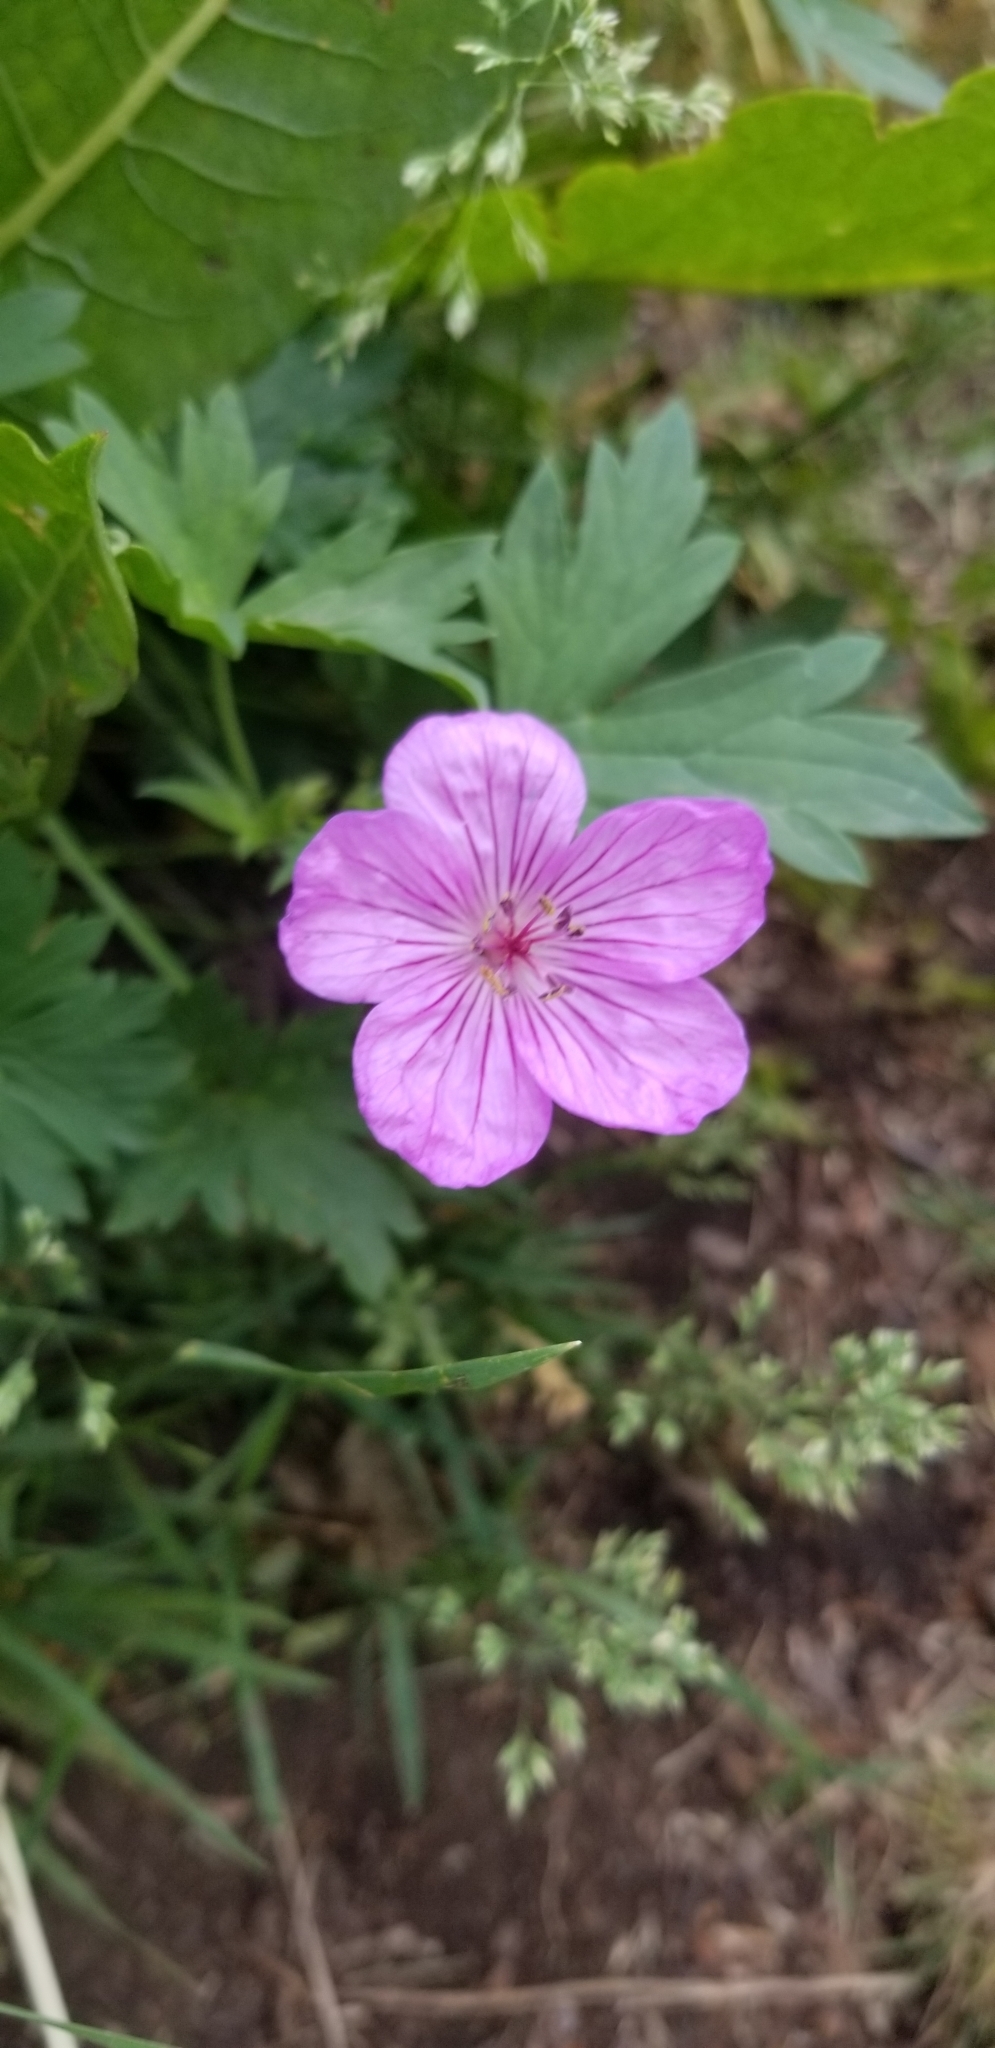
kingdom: Plantae
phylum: Tracheophyta
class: Magnoliopsida
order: Geraniales
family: Geraniaceae
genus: Geranium
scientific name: Geranium viscosissimum
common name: Purple geranium
